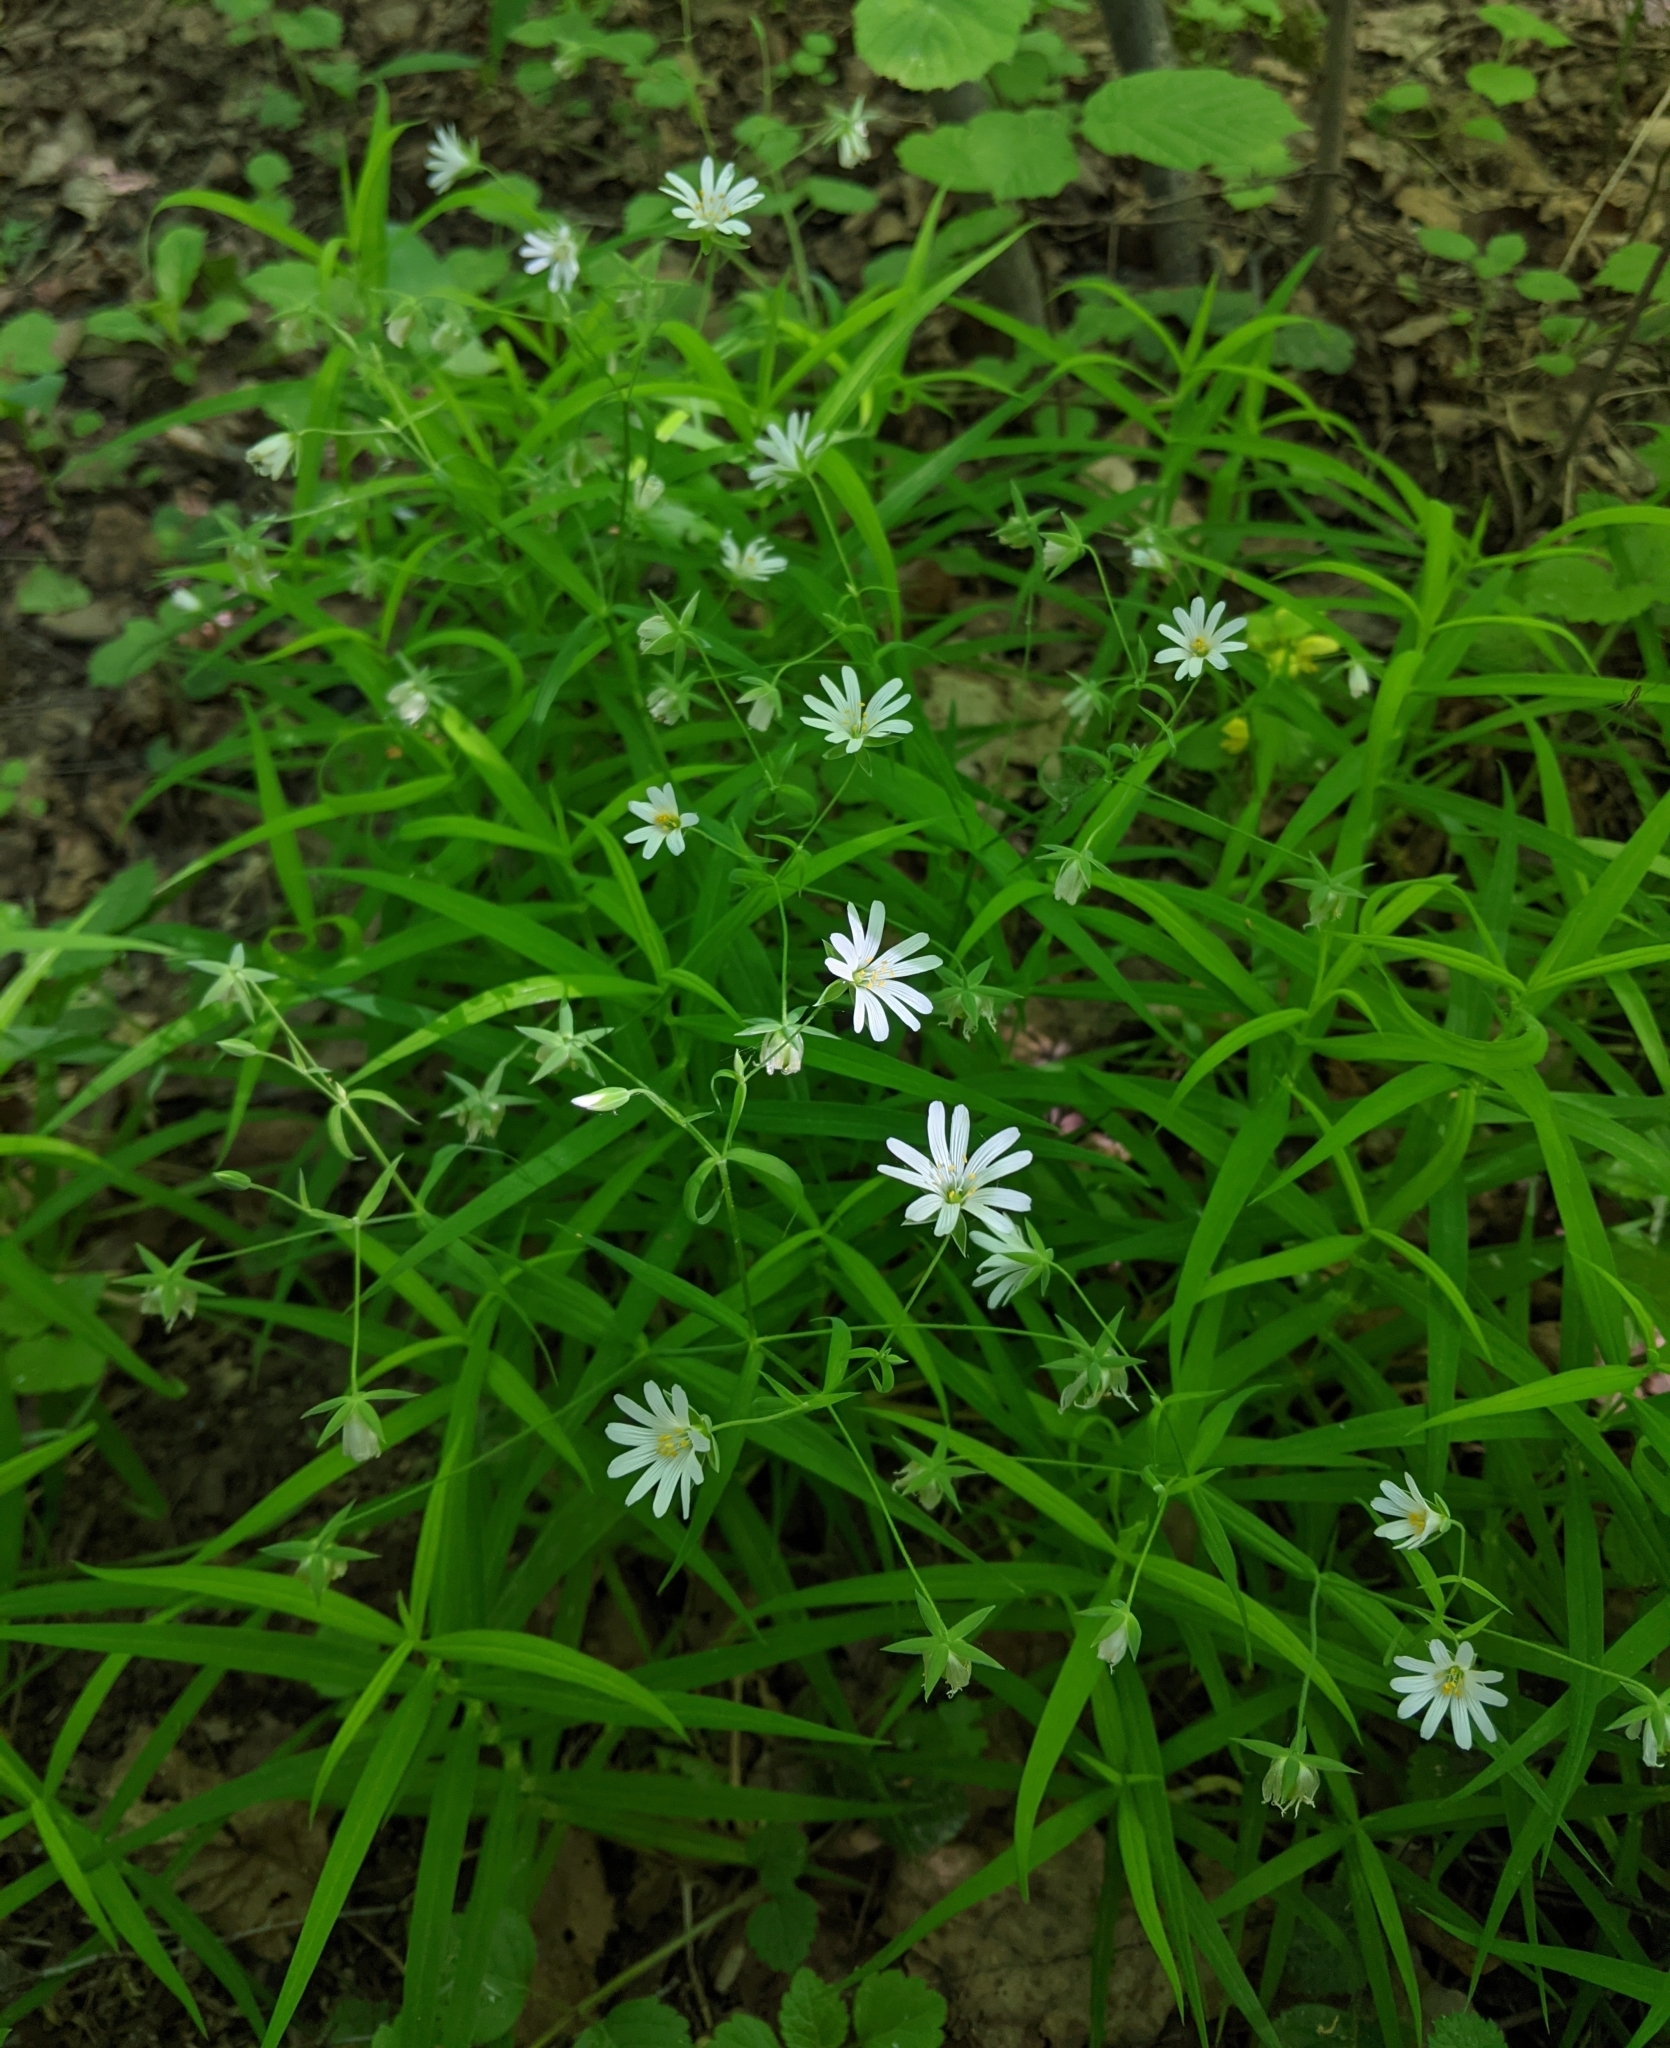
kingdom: Plantae
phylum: Tracheophyta
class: Magnoliopsida
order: Caryophyllales
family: Caryophyllaceae
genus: Rabelera
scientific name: Rabelera holostea
